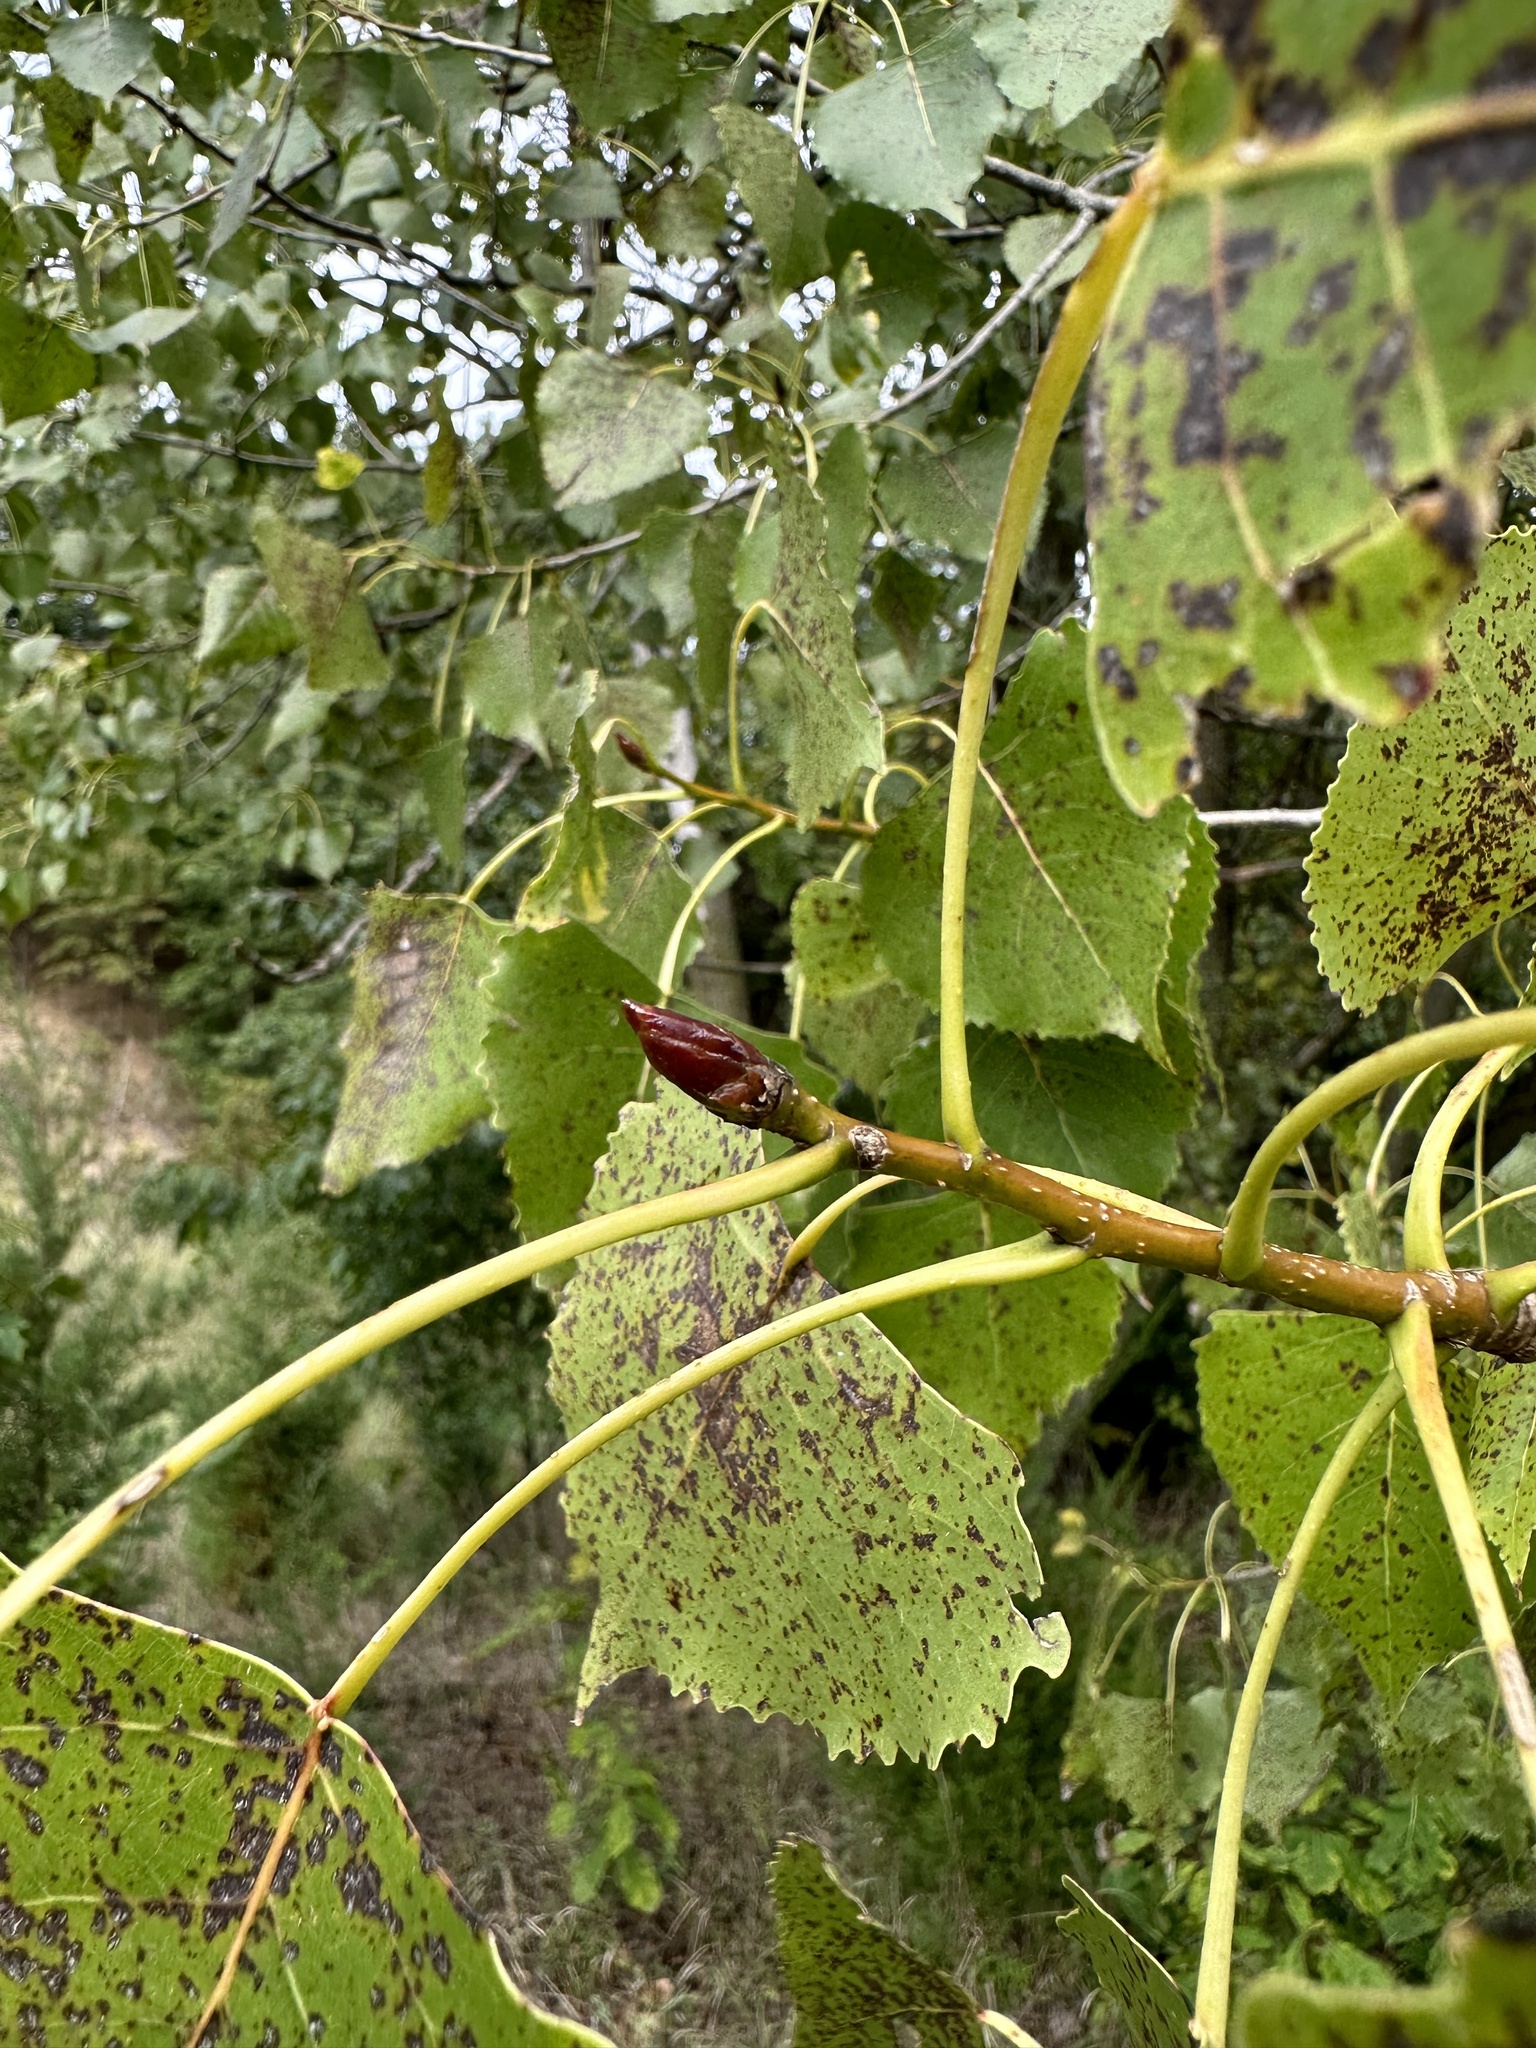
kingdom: Plantae
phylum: Tracheophyta
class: Magnoliopsida
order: Malpighiales
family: Salicaceae
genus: Populus
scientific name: Populus deltoides
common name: Eastern cottonwood
